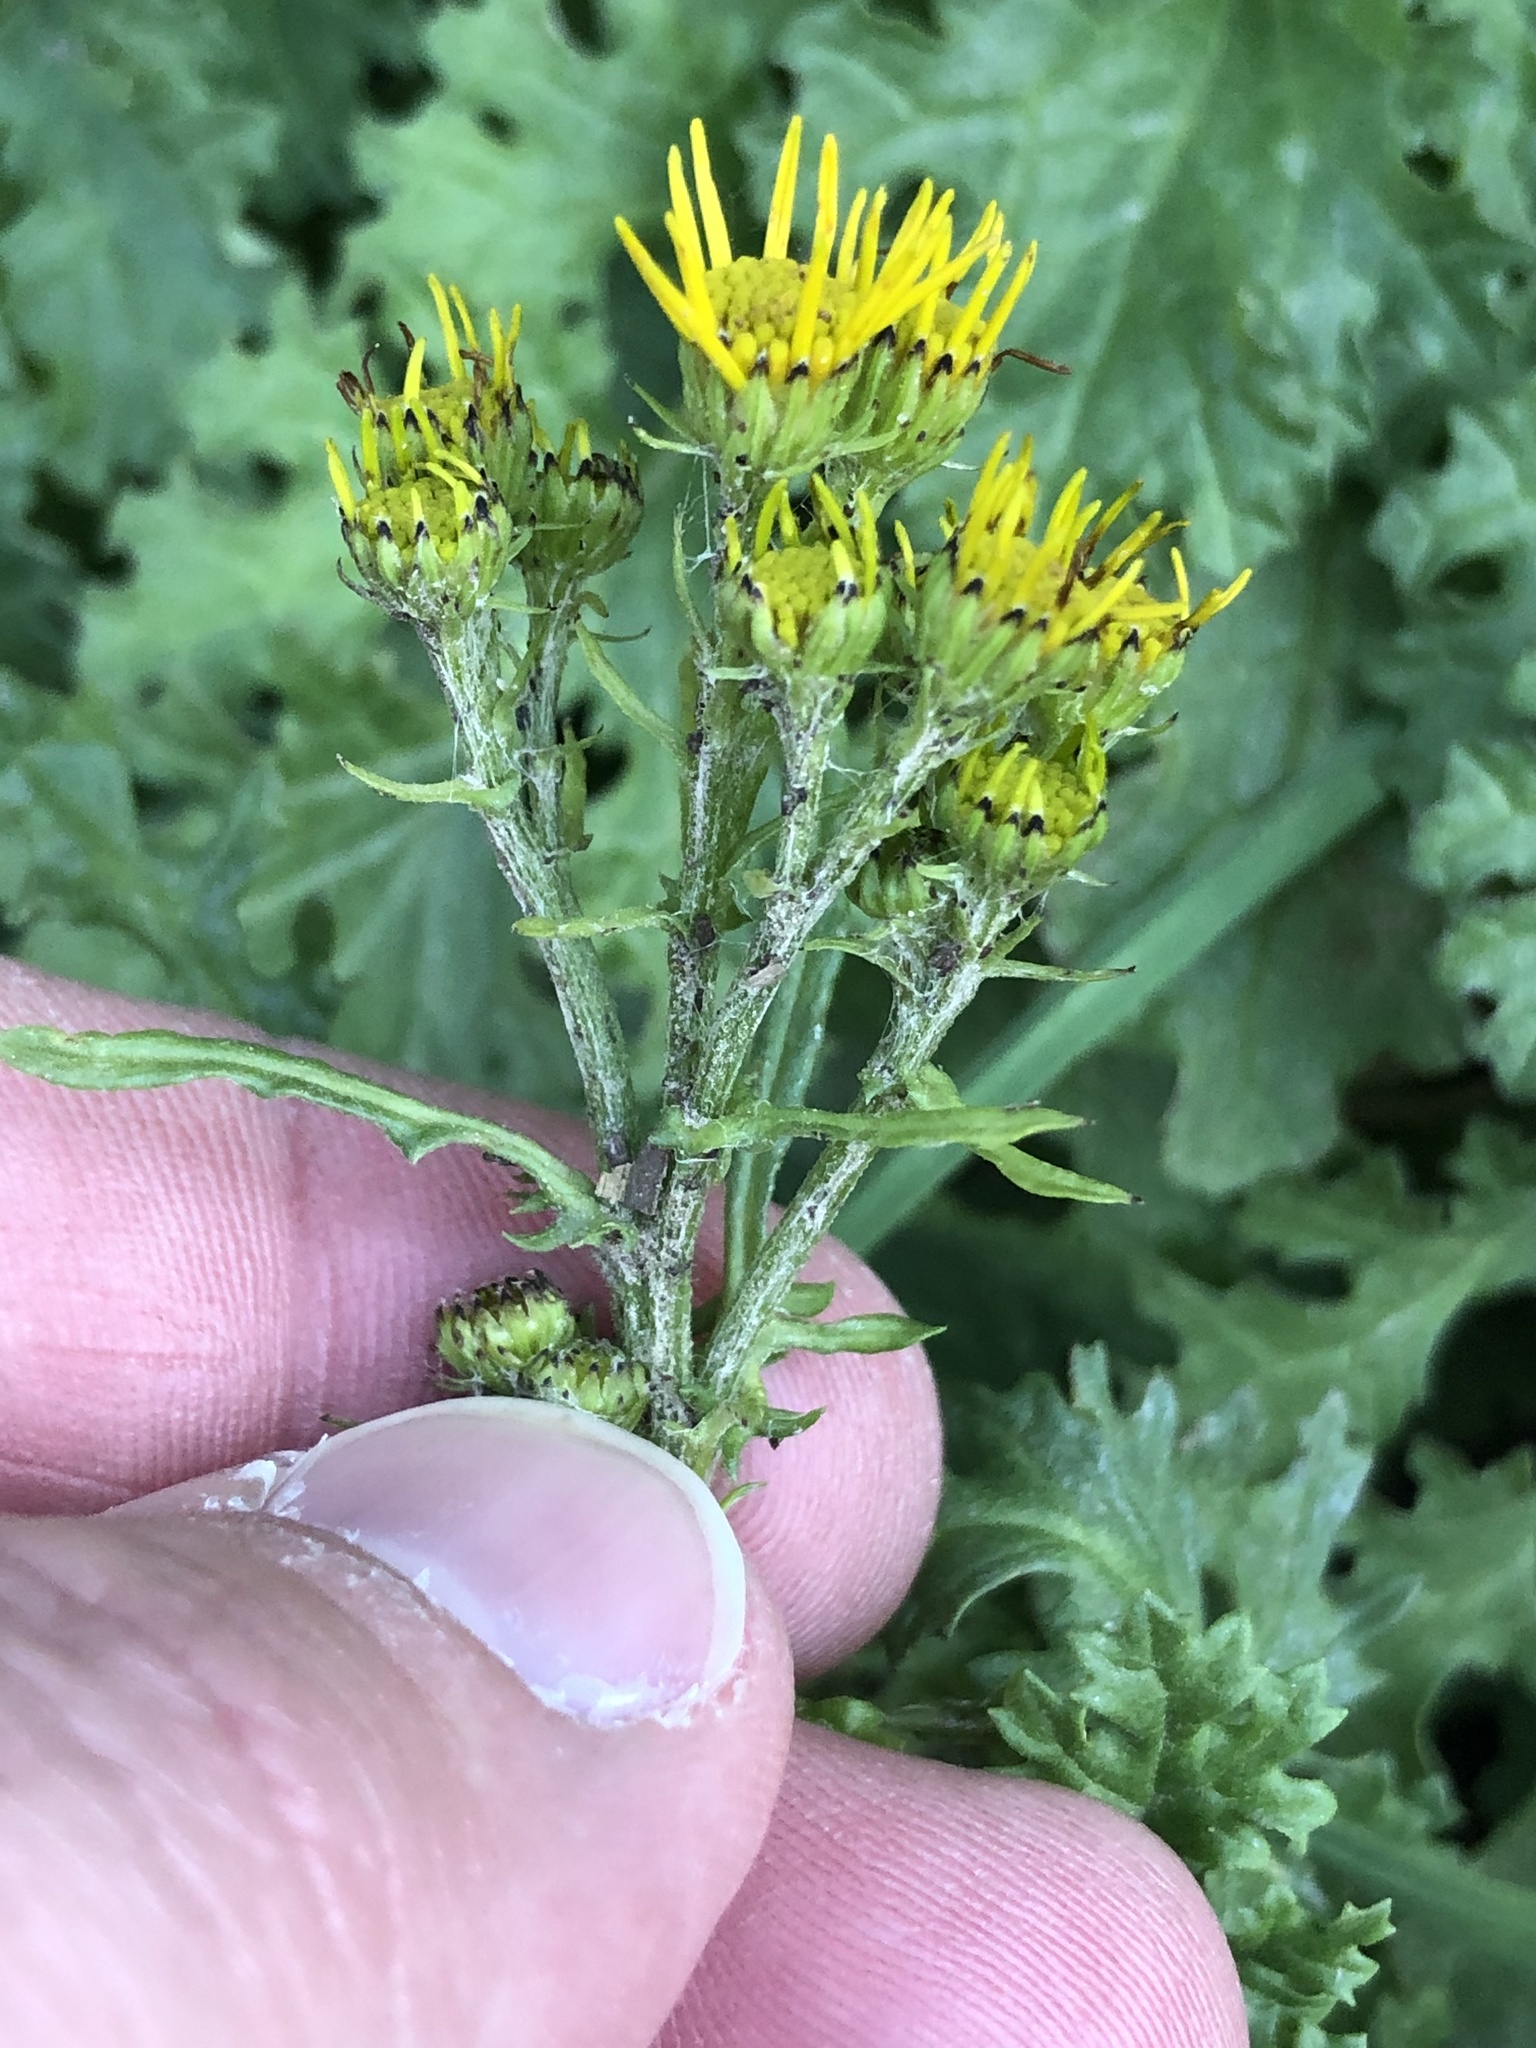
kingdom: Plantae
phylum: Tracheophyta
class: Magnoliopsida
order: Asterales
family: Asteraceae
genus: Jacobaea
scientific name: Jacobaea vulgaris
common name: Stinking willie
